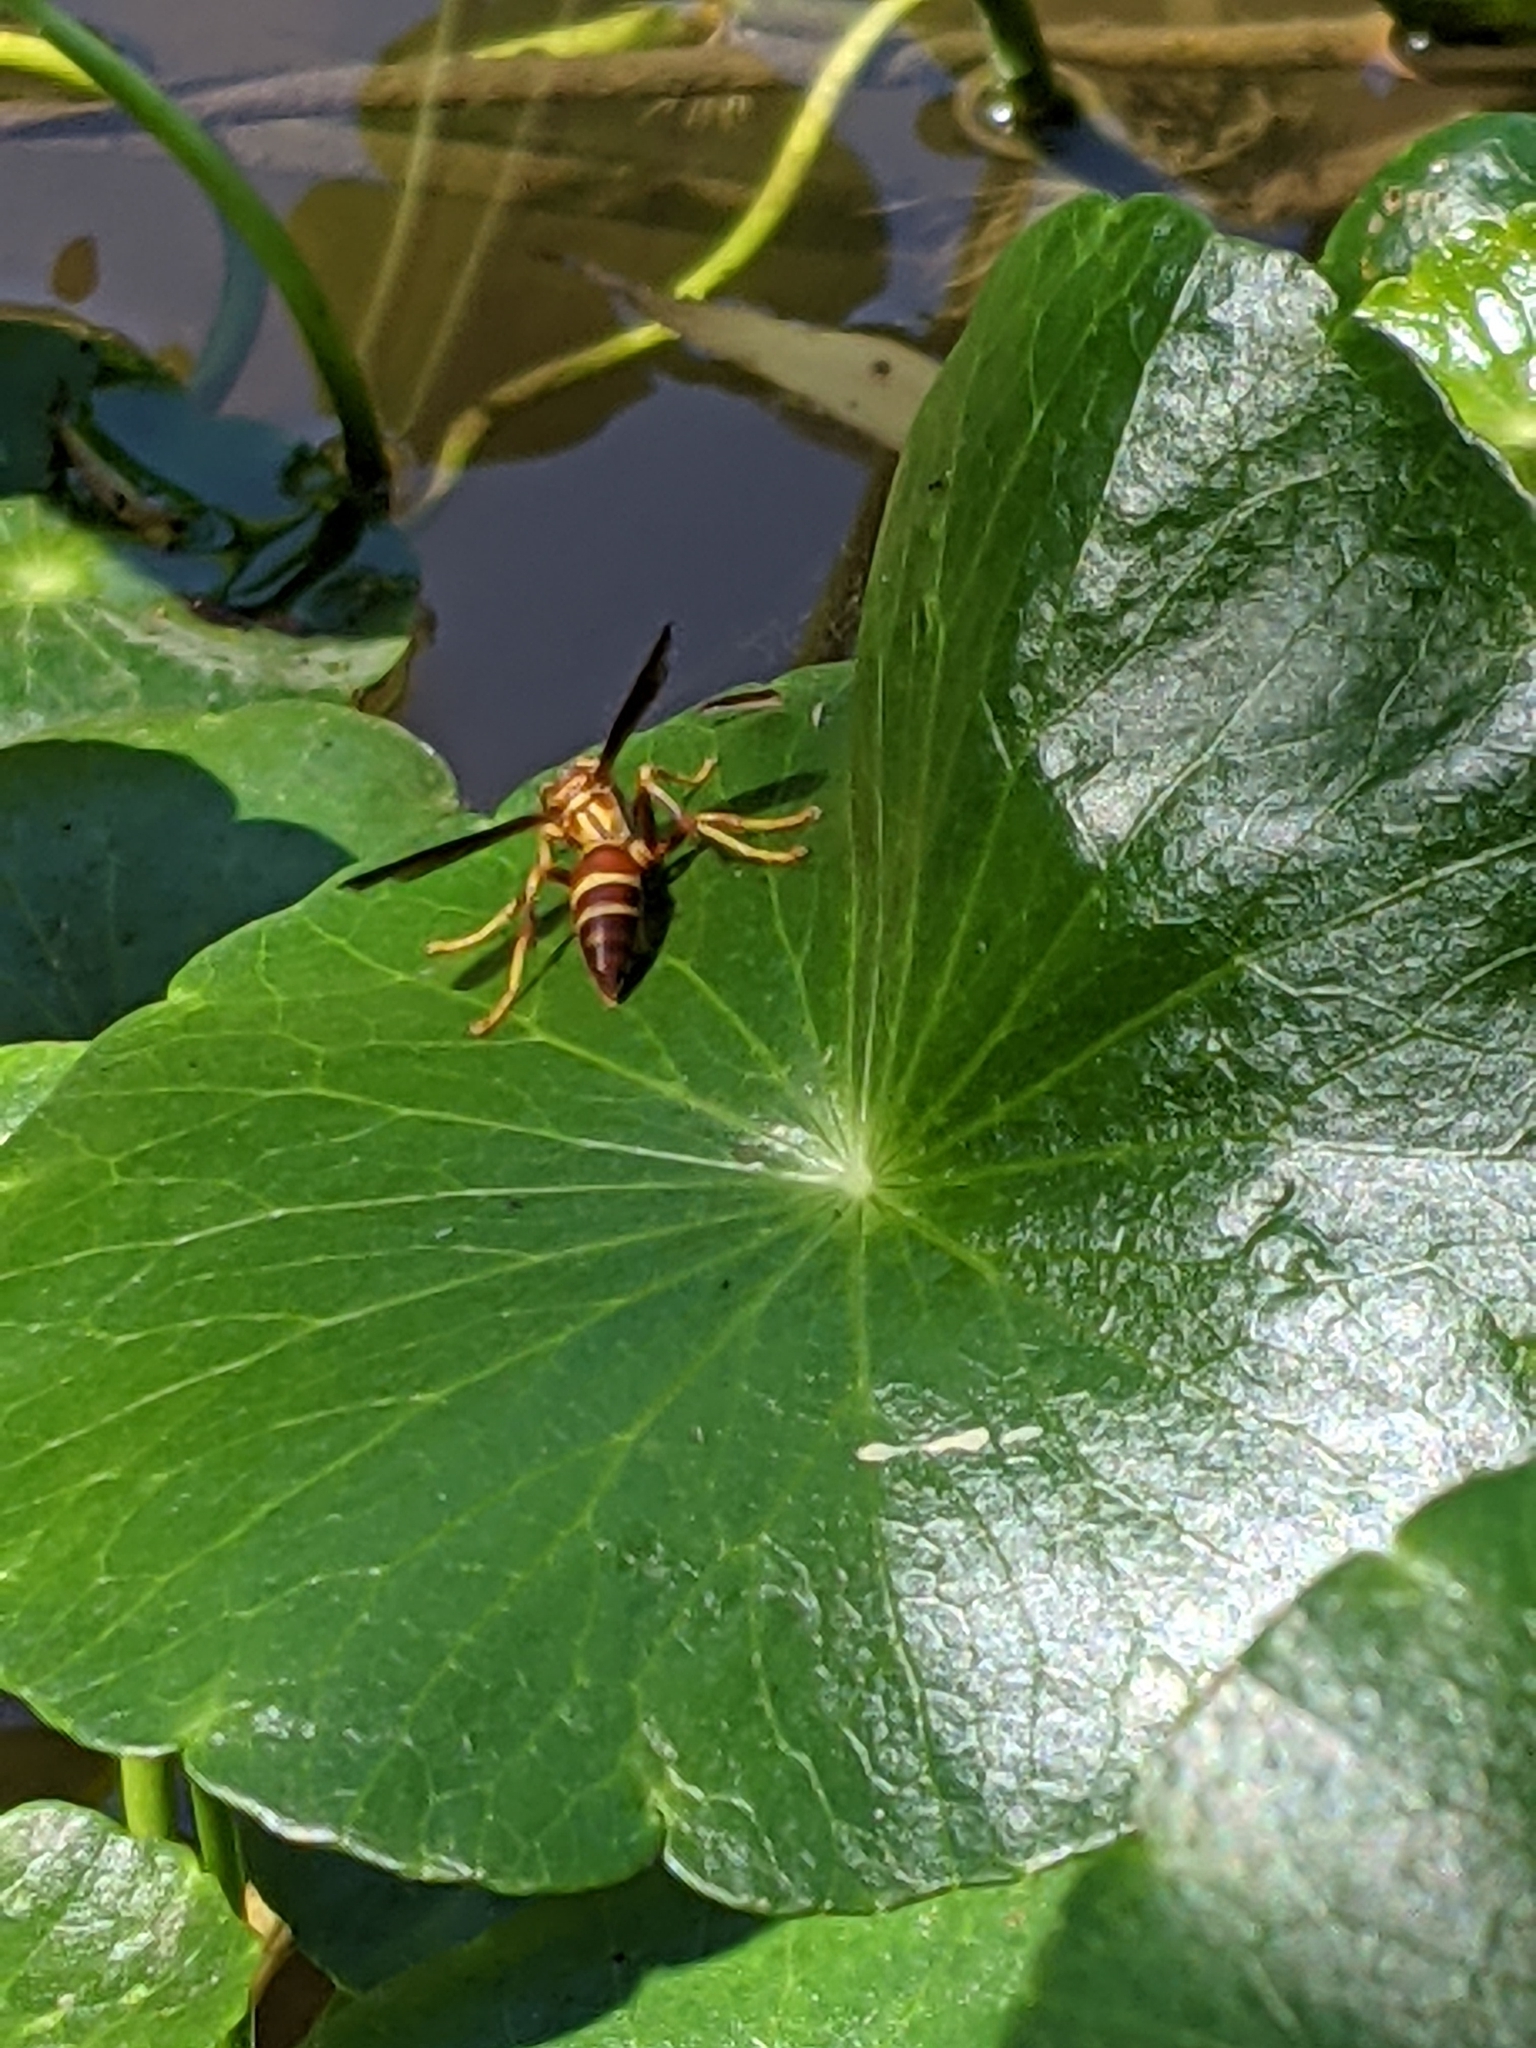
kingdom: Animalia
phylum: Arthropoda
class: Insecta
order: Hymenoptera
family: Eumenidae
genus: Polistes
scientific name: Polistes arizonensis
